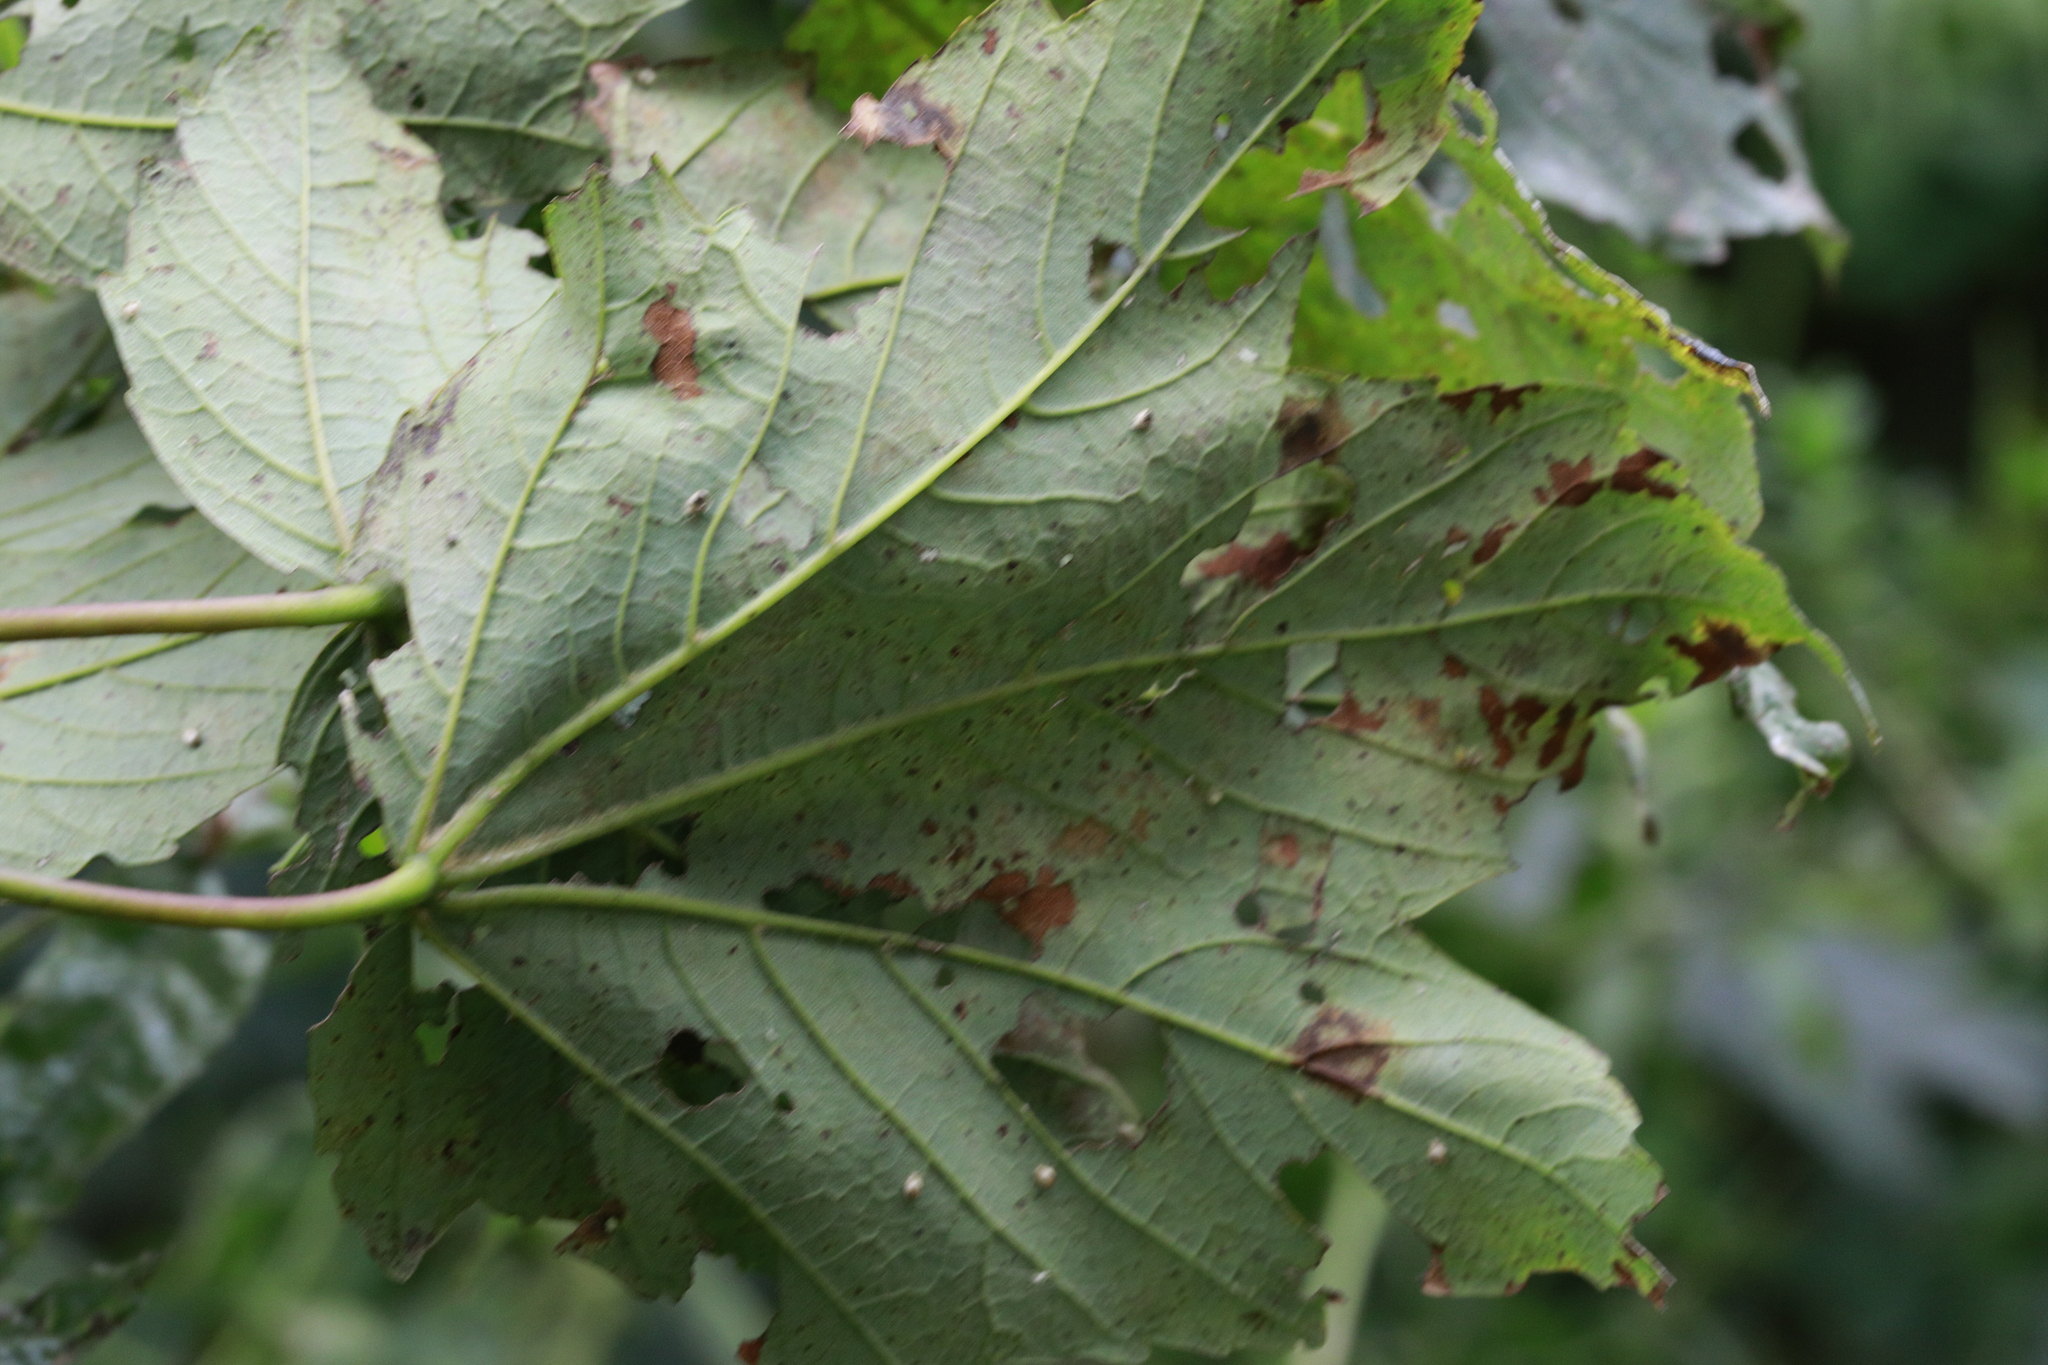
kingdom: Animalia
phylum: Arthropoda
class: Arachnida
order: Trombidiformes
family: Eriophyidae
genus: Aceria
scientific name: Aceria pseudoplatani
